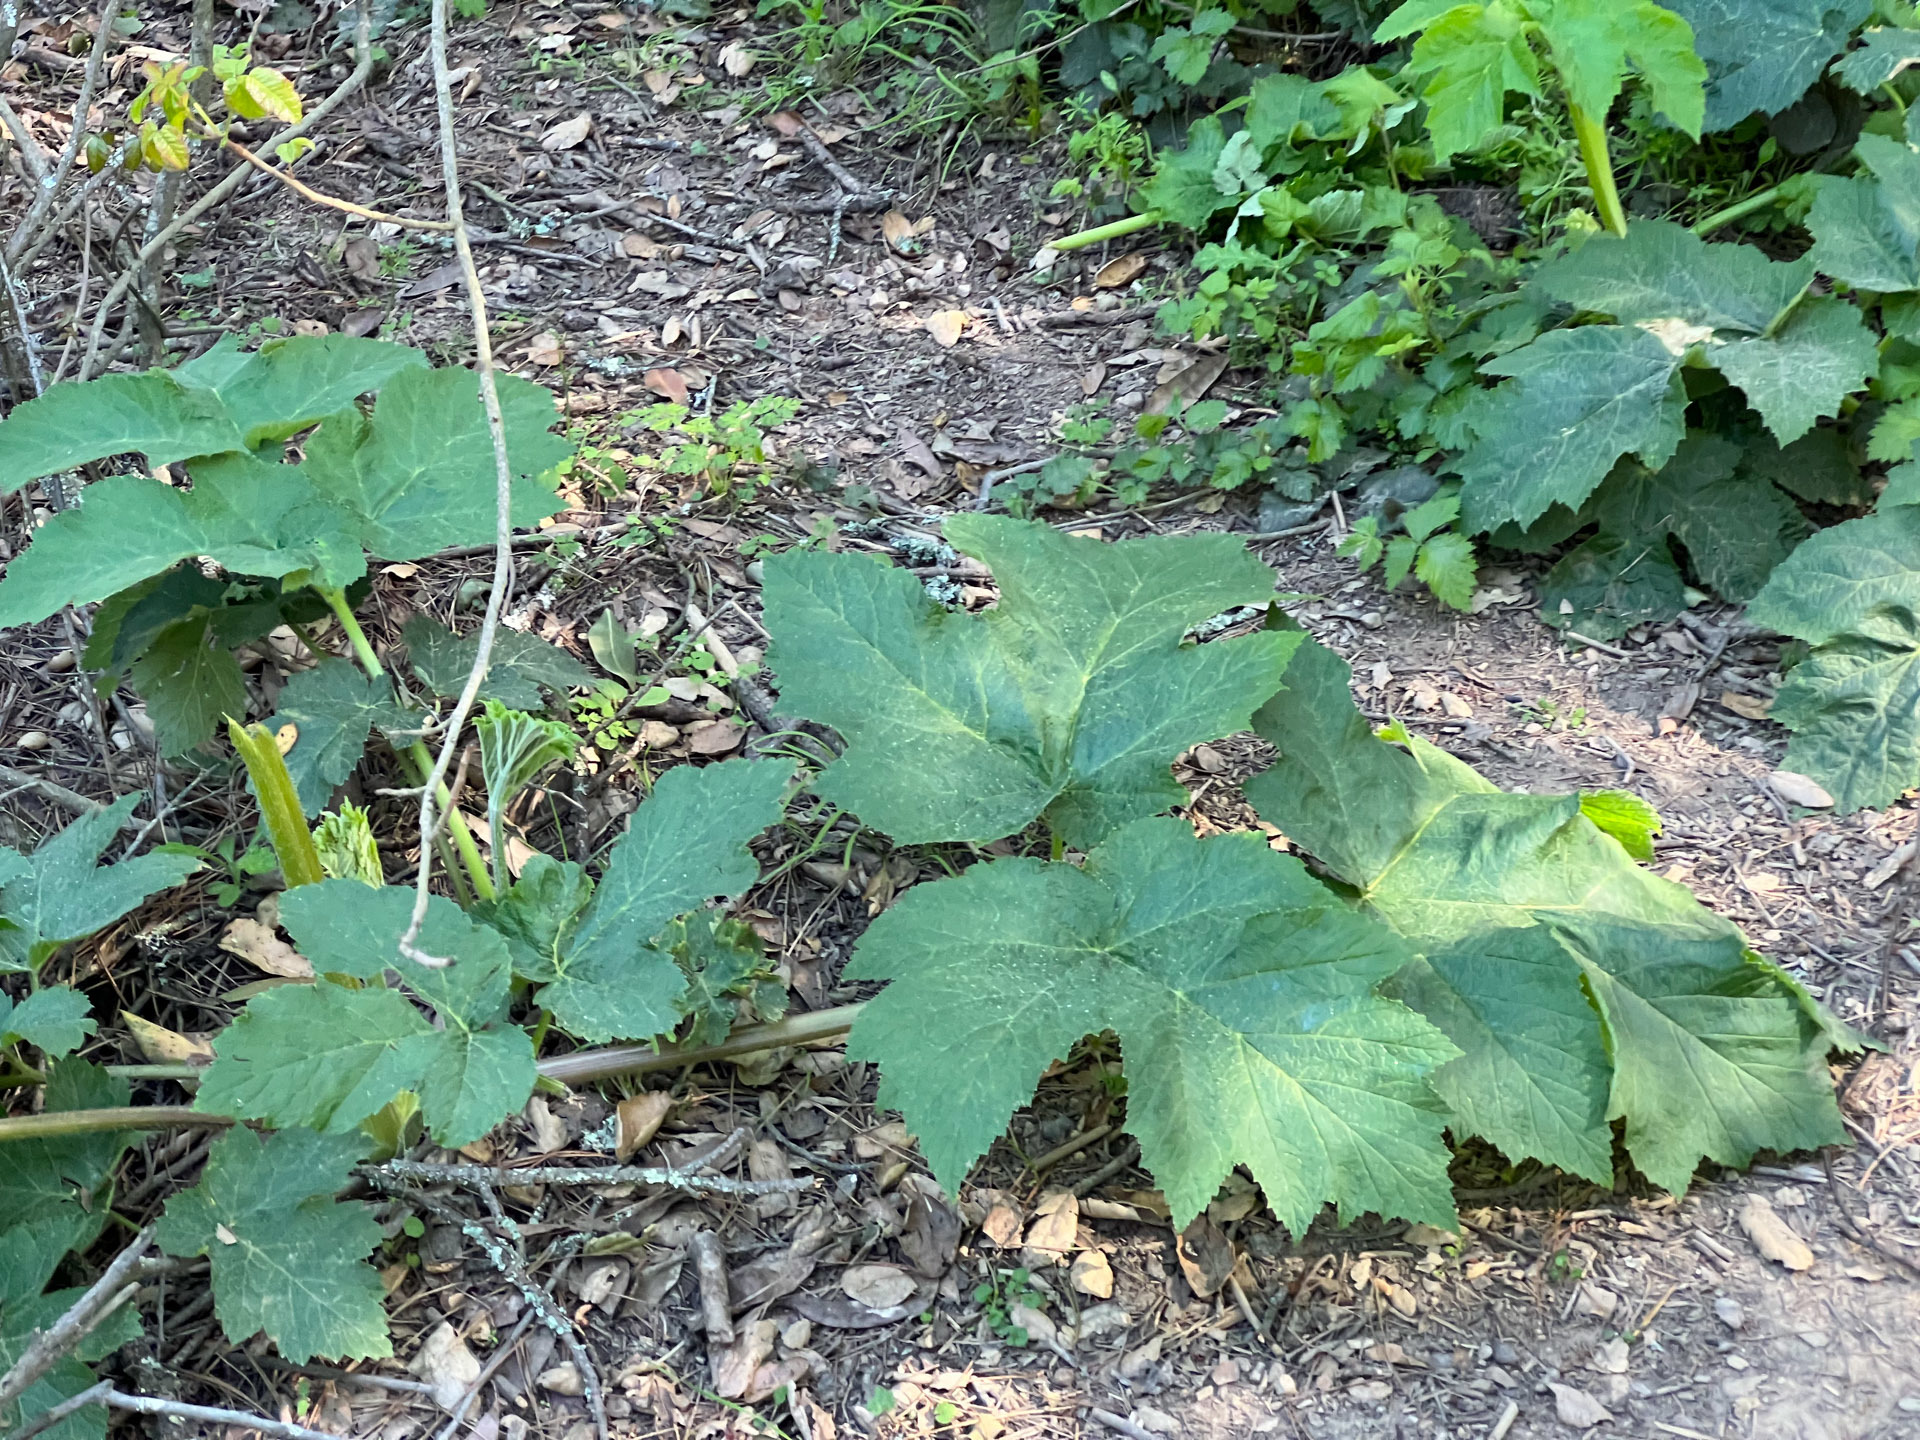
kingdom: Plantae
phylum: Tracheophyta
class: Magnoliopsida
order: Apiales
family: Apiaceae
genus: Heracleum
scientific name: Heracleum maximum
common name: American cow parsnip
